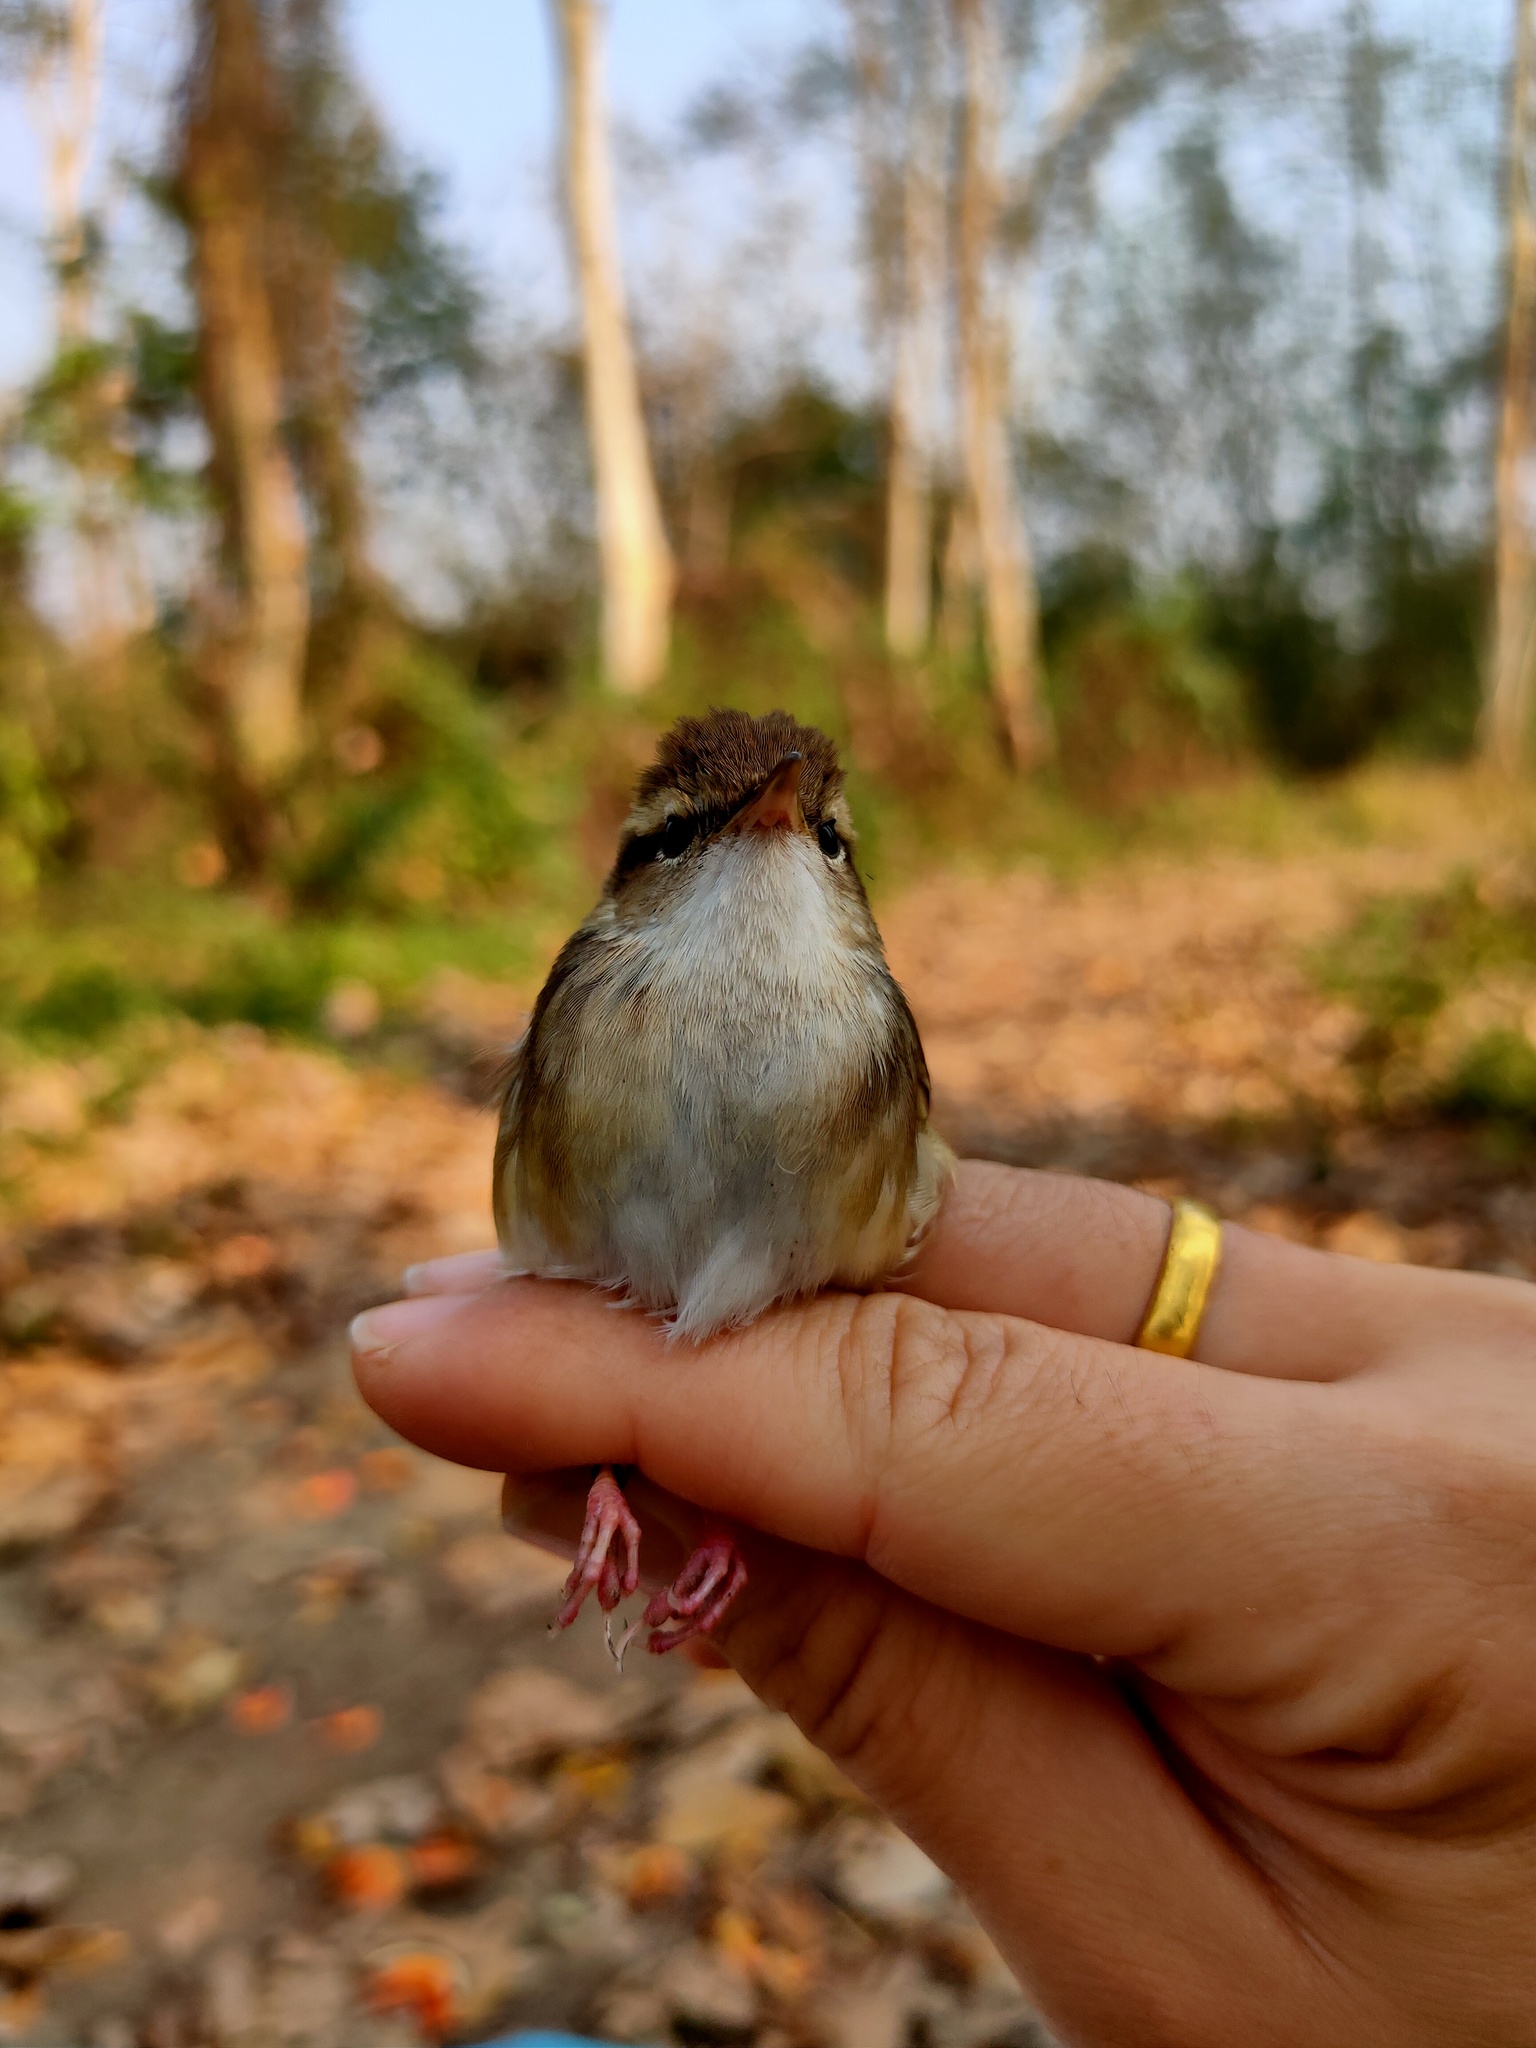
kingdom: Animalia
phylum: Chordata
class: Aves
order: Passeriformes
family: Cettiidae
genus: Urosphena
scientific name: Urosphena pallidipes
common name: Pale-footed bush warbler
